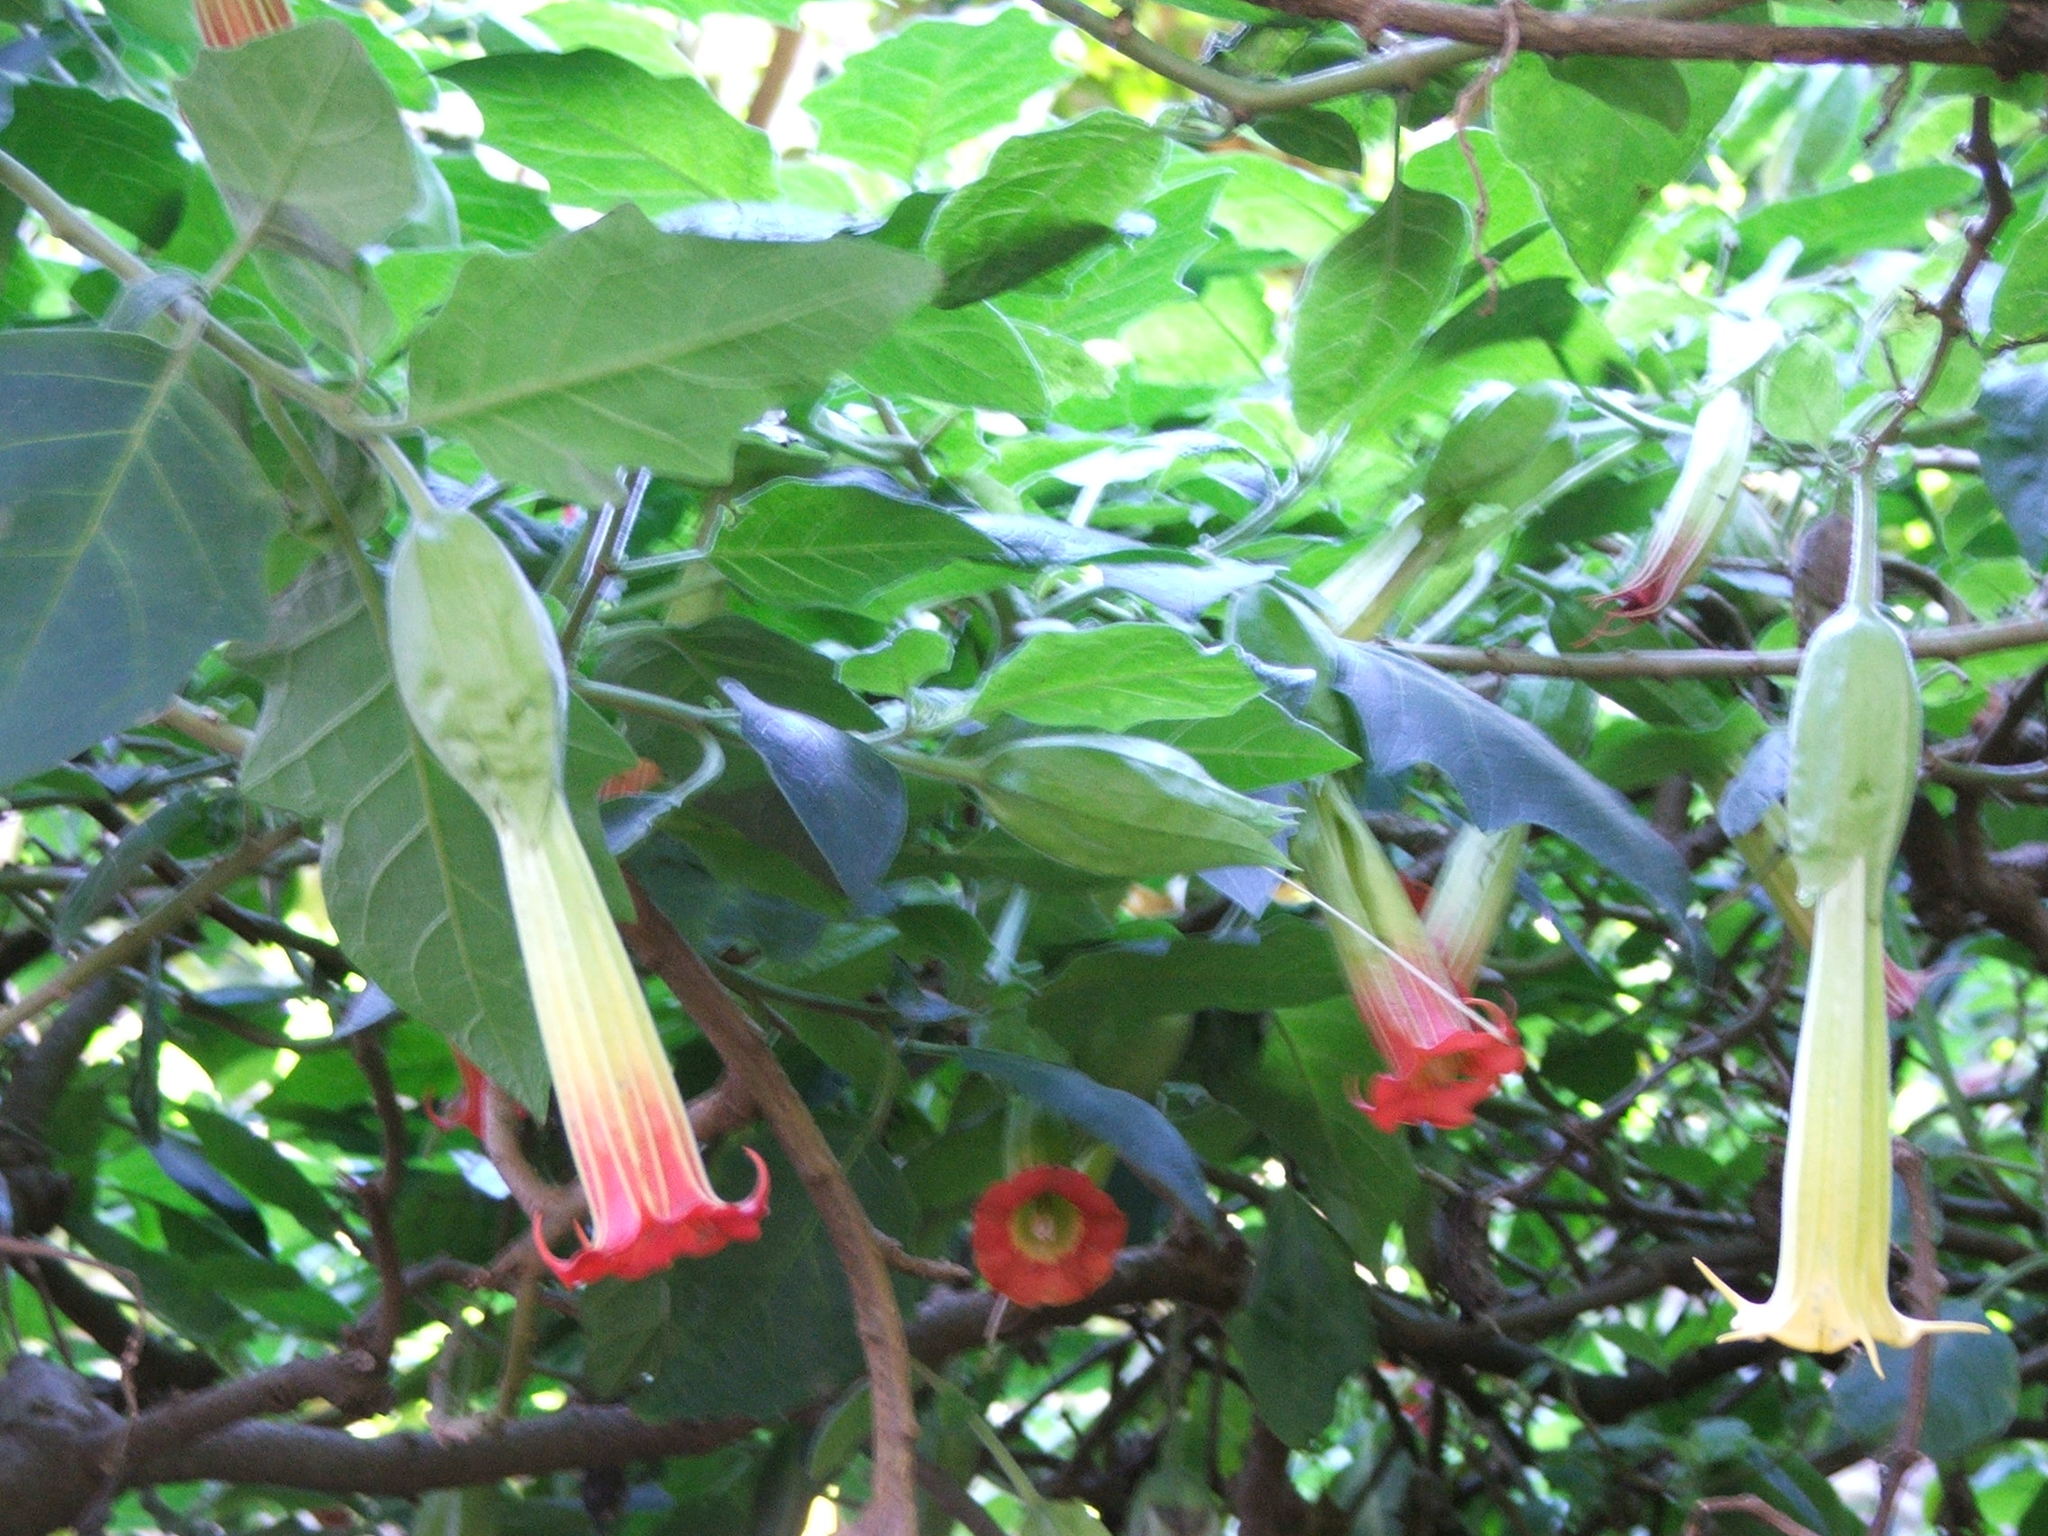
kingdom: Plantae
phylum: Tracheophyta
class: Magnoliopsida
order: Solanales
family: Solanaceae
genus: Brugmansia
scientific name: Brugmansia sanguinea
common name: Red floripontio
